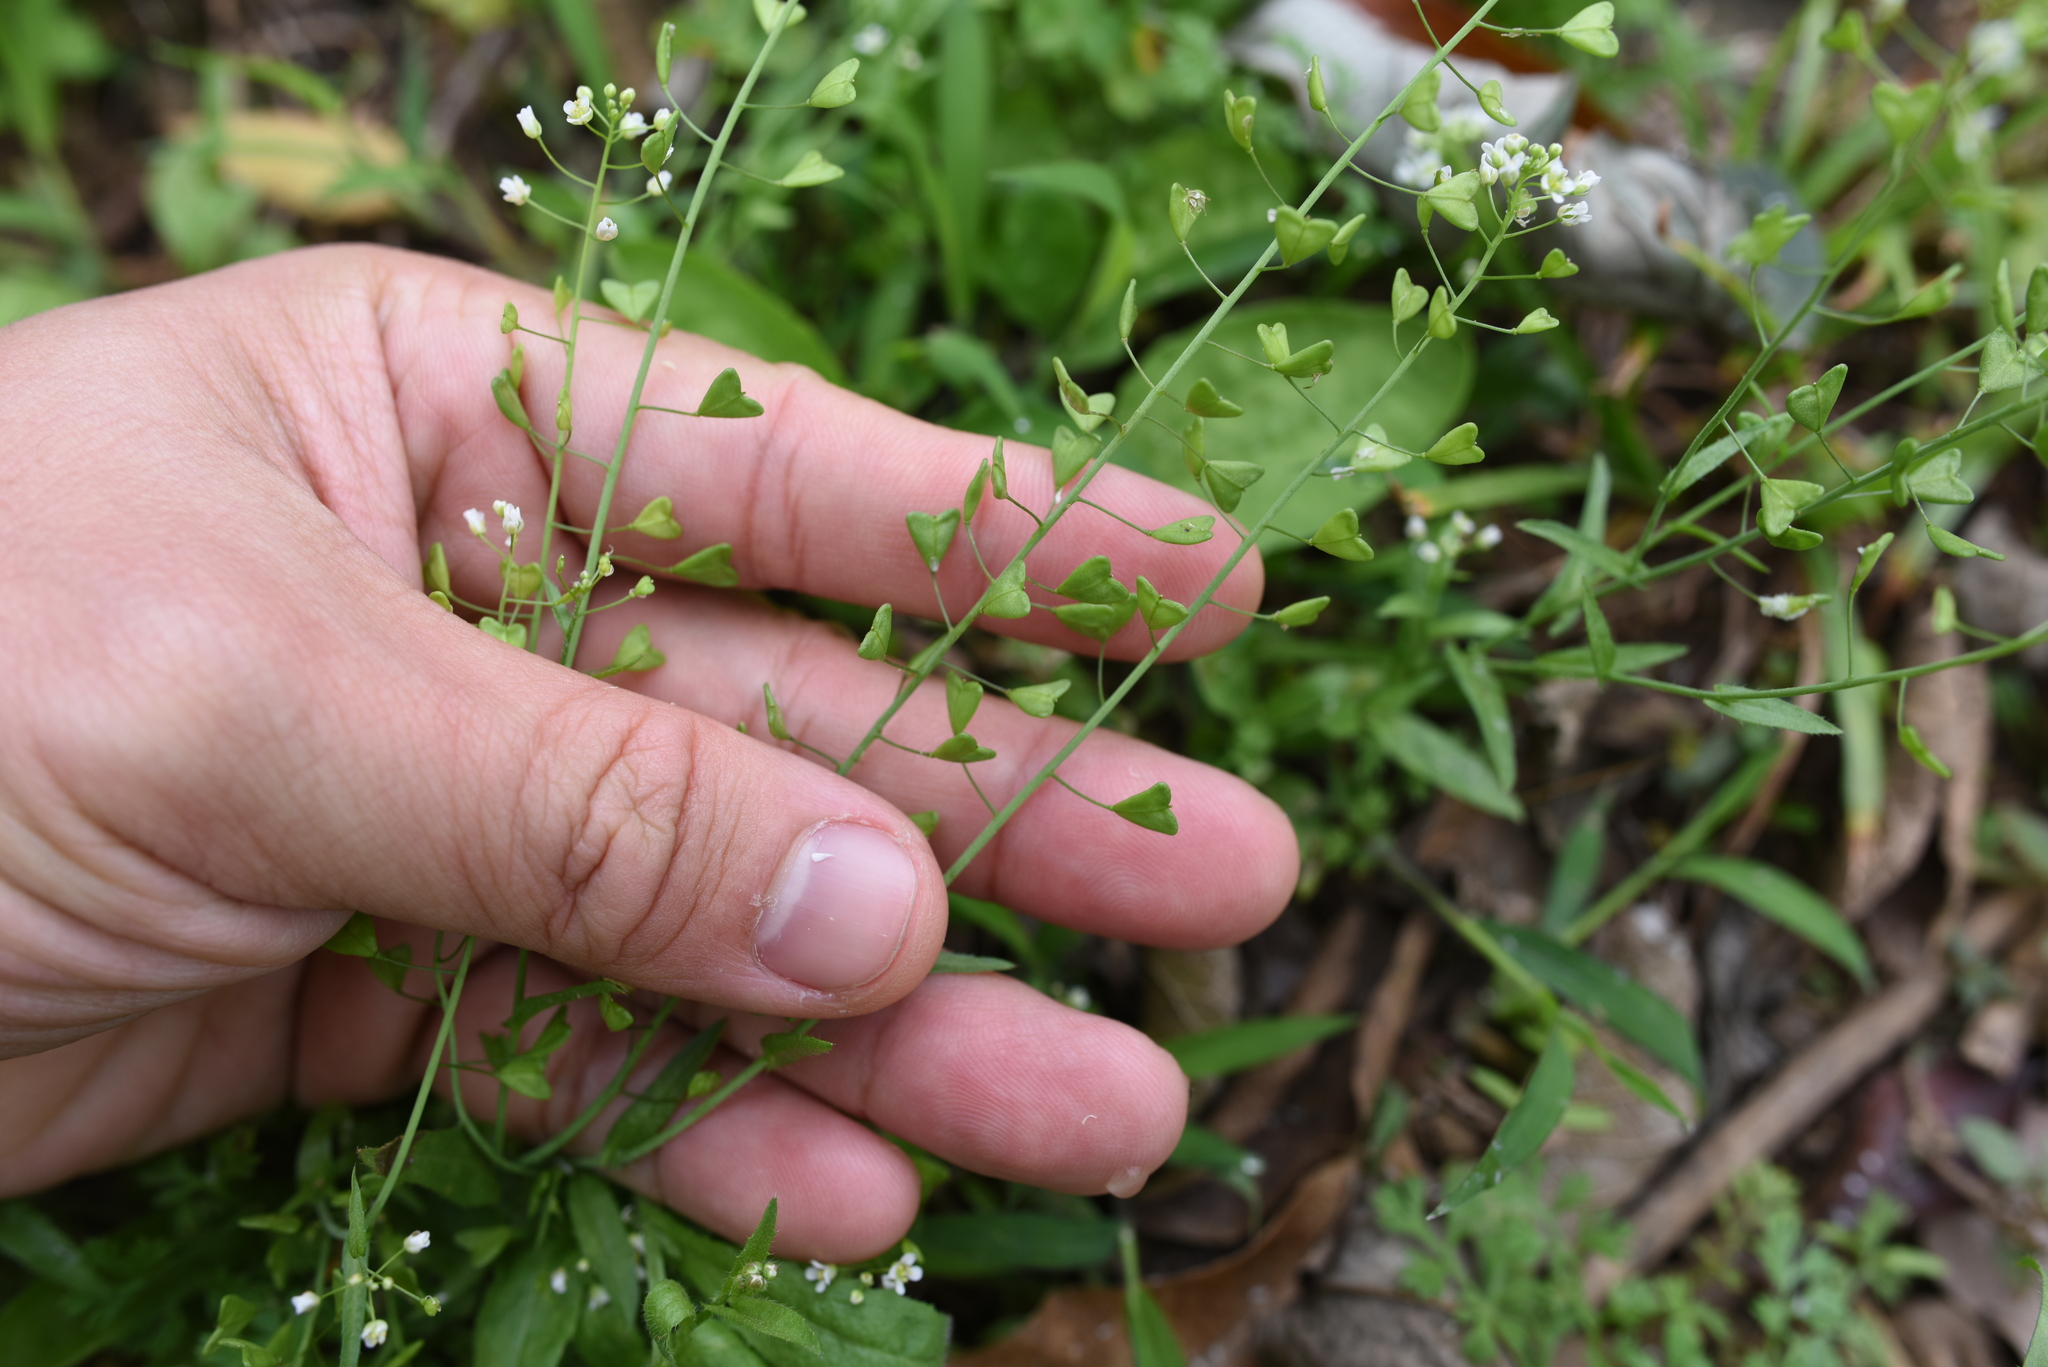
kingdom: Plantae
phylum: Tracheophyta
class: Magnoliopsida
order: Brassicales
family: Brassicaceae
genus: Capsella
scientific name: Capsella bursa-pastoris
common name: Shepherd's purse
